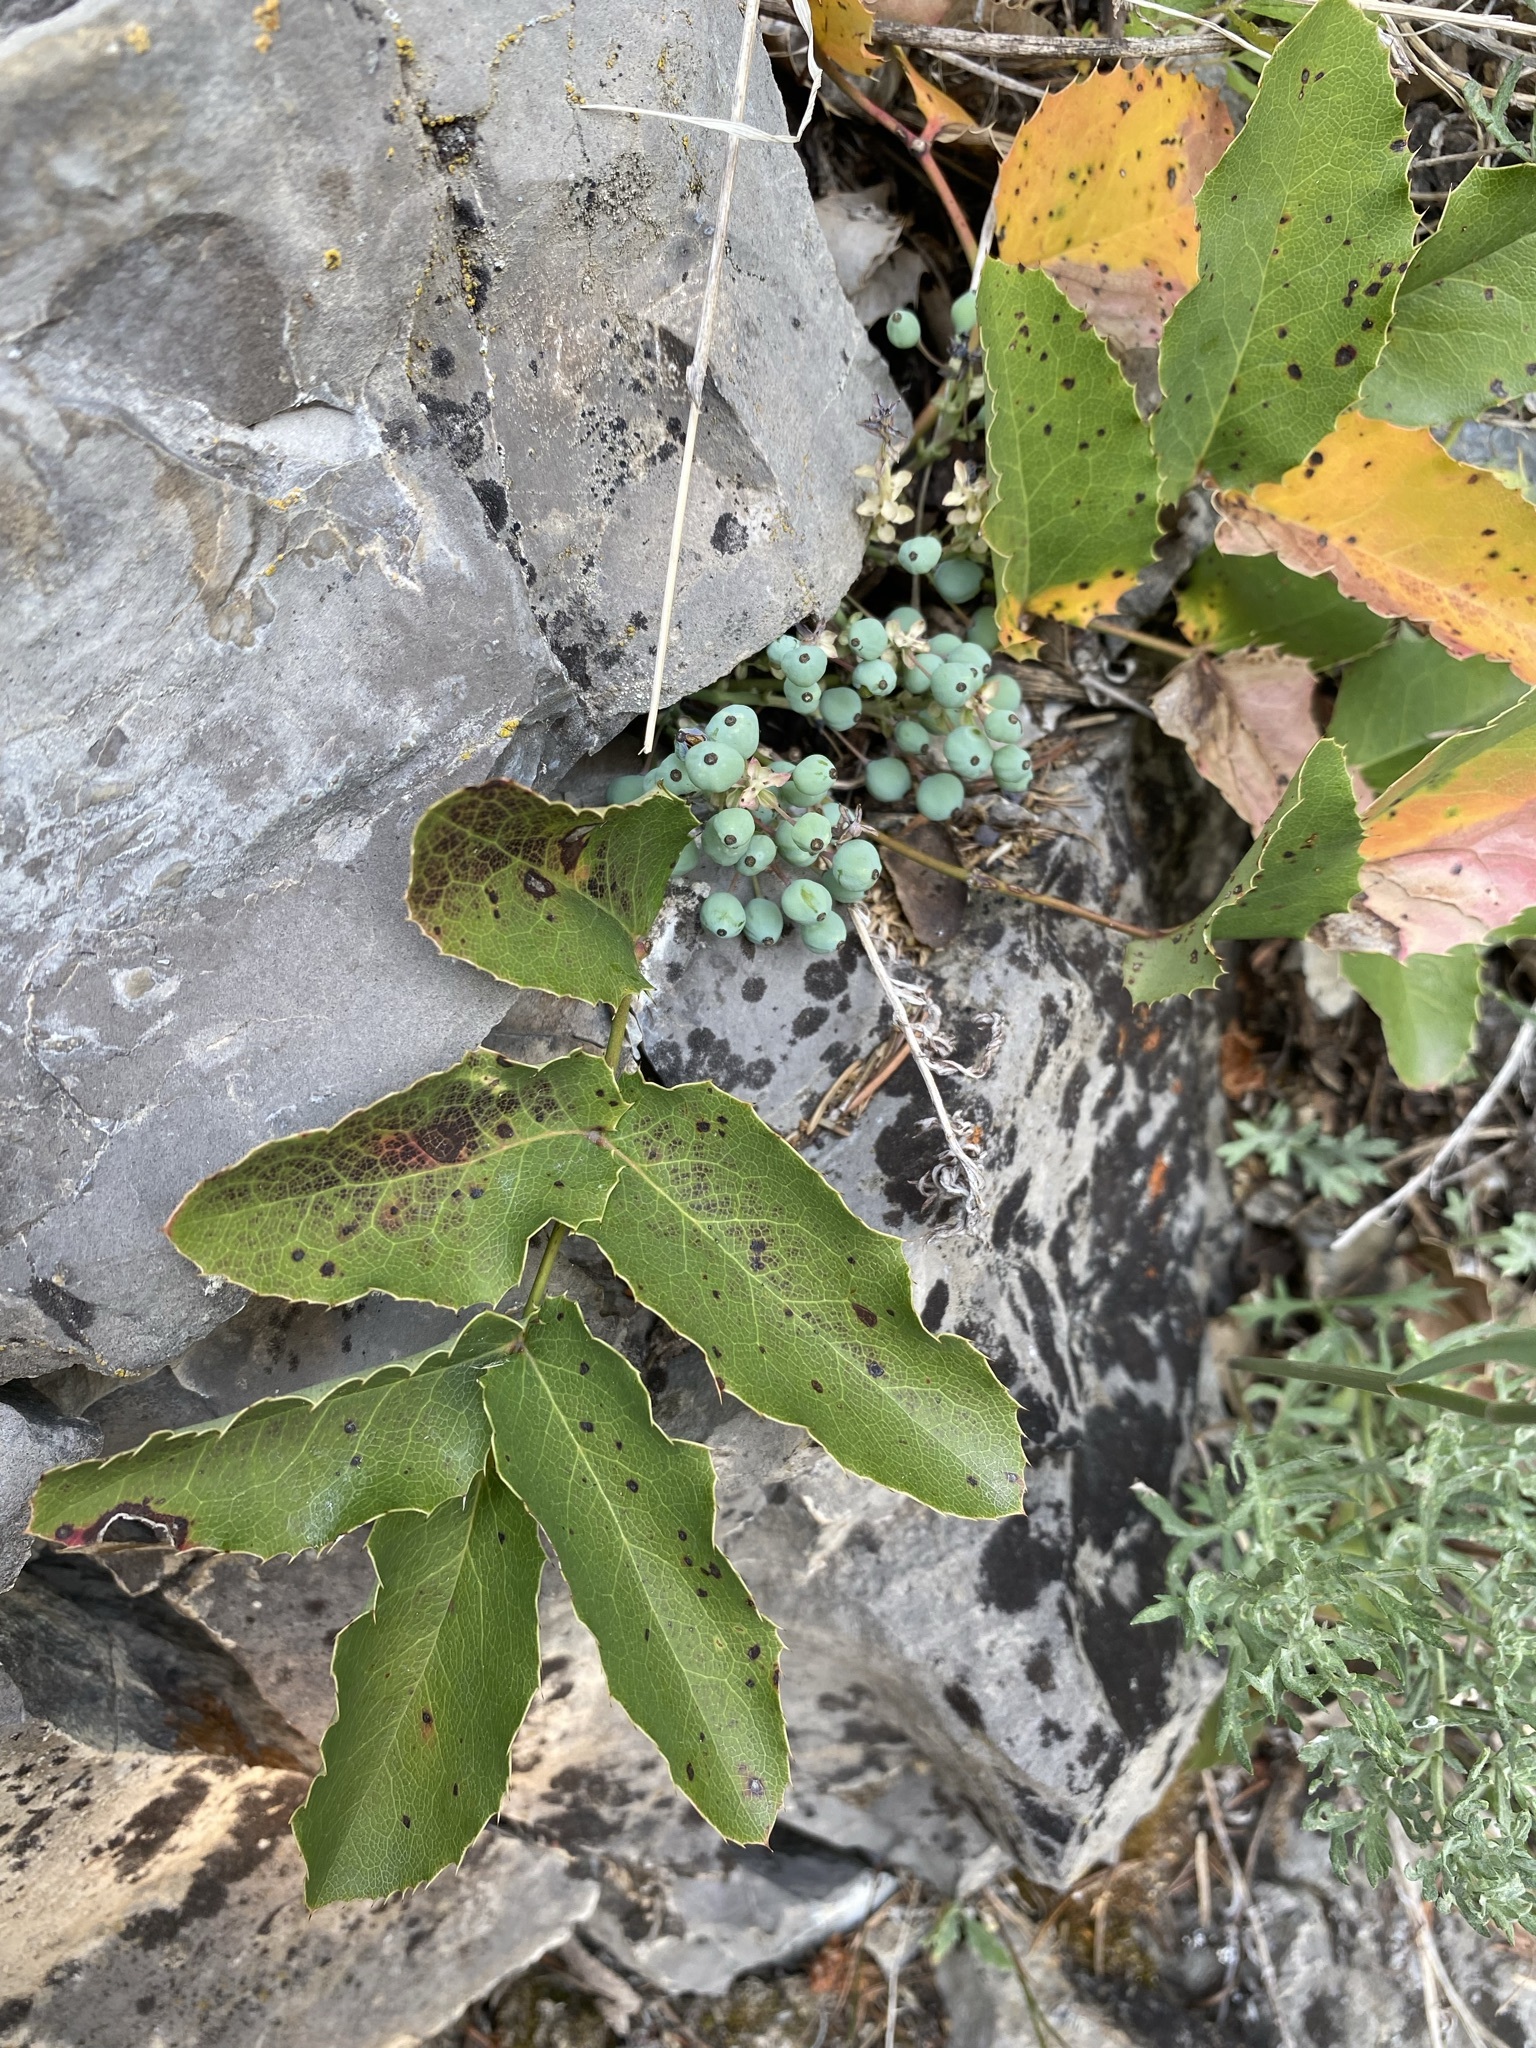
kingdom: Plantae
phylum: Tracheophyta
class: Magnoliopsida
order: Ranunculales
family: Berberidaceae
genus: Mahonia
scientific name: Mahonia repens
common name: Creeping oregon-grape
